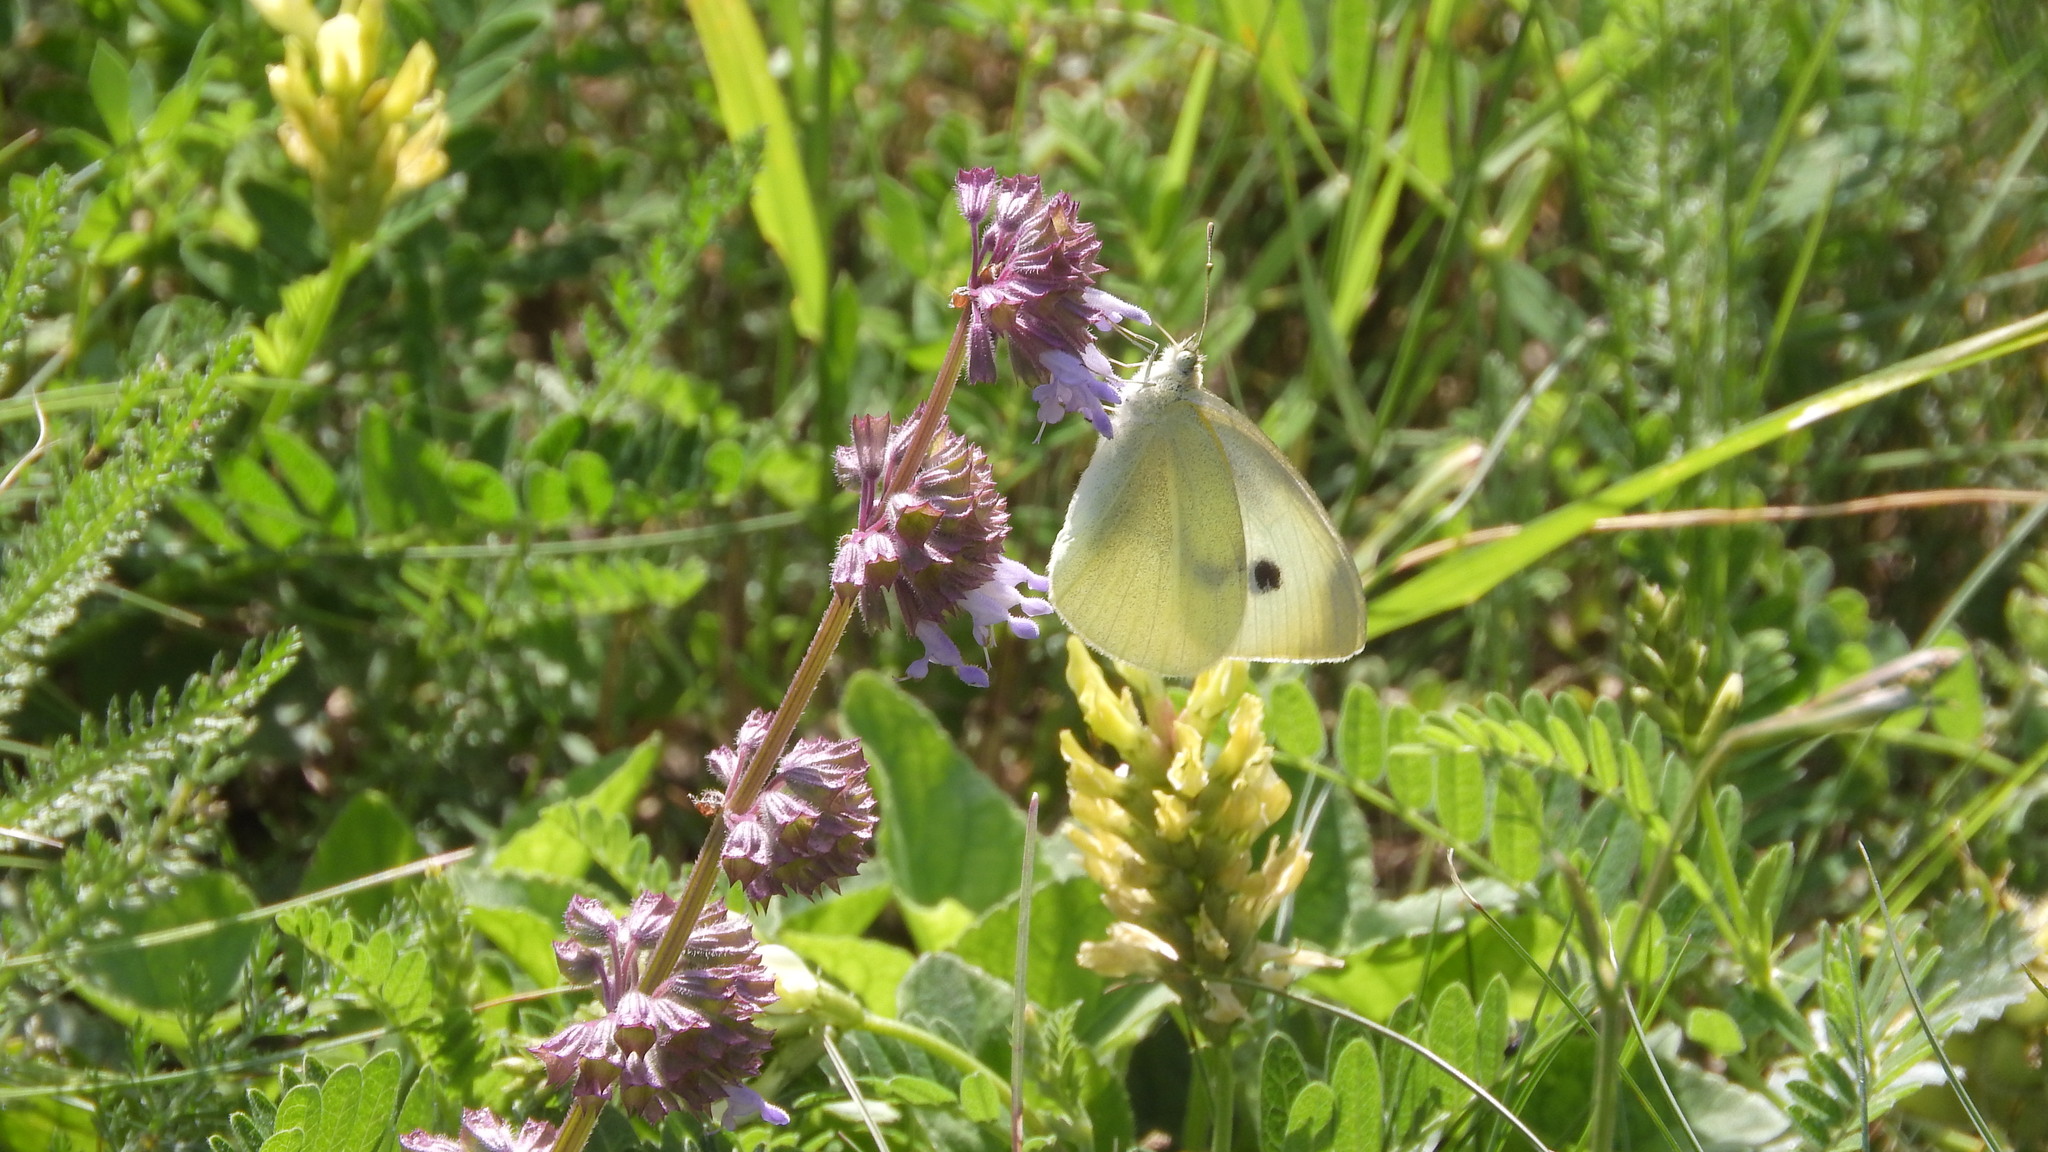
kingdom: Animalia
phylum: Arthropoda
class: Insecta
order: Lepidoptera
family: Pieridae
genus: Pieris
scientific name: Pieris rapae
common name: Small white
